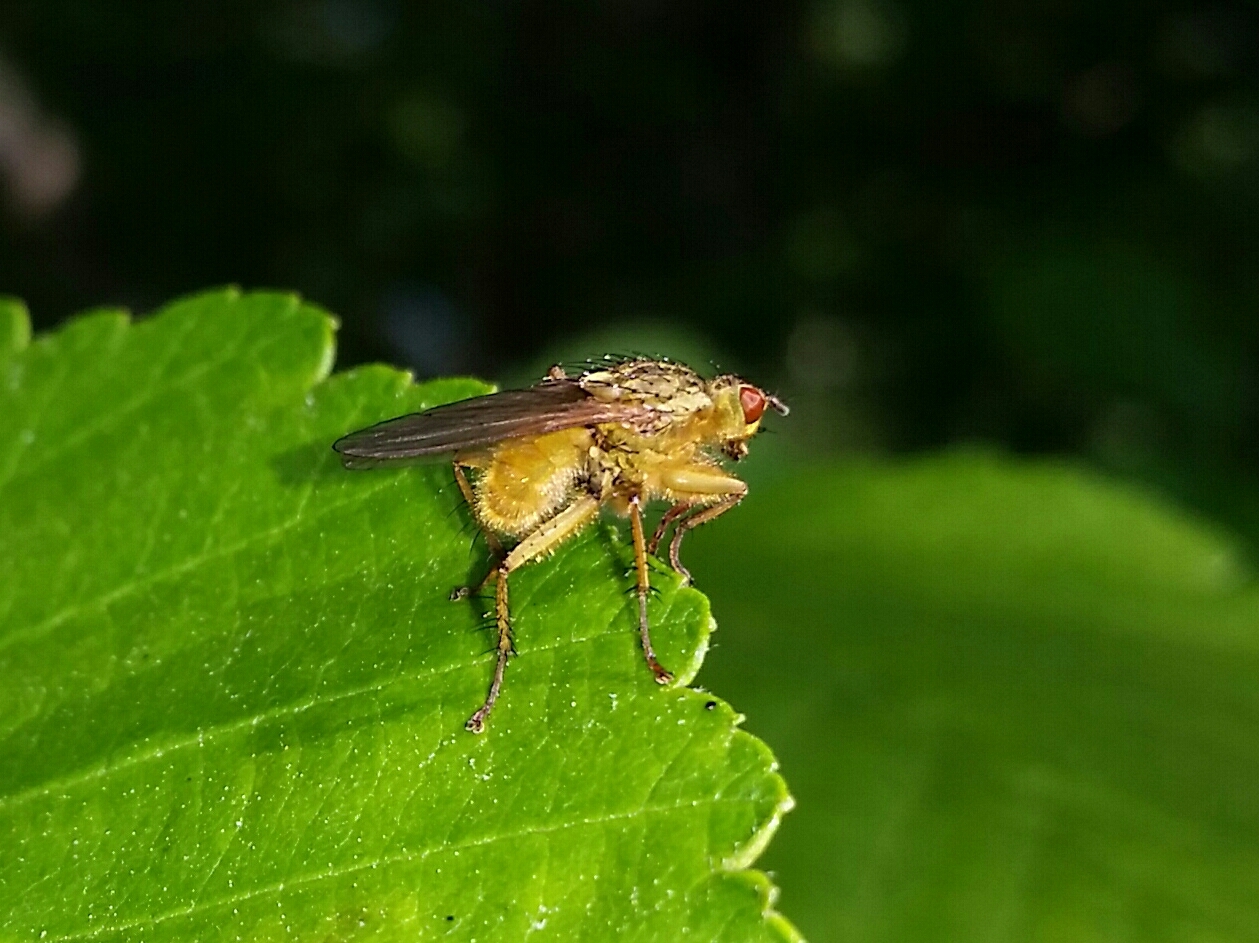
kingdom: Animalia
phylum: Arthropoda
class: Insecta
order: Diptera
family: Scathophagidae
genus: Scathophaga
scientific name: Scathophaga stercoraria
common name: Yellow dung fly
